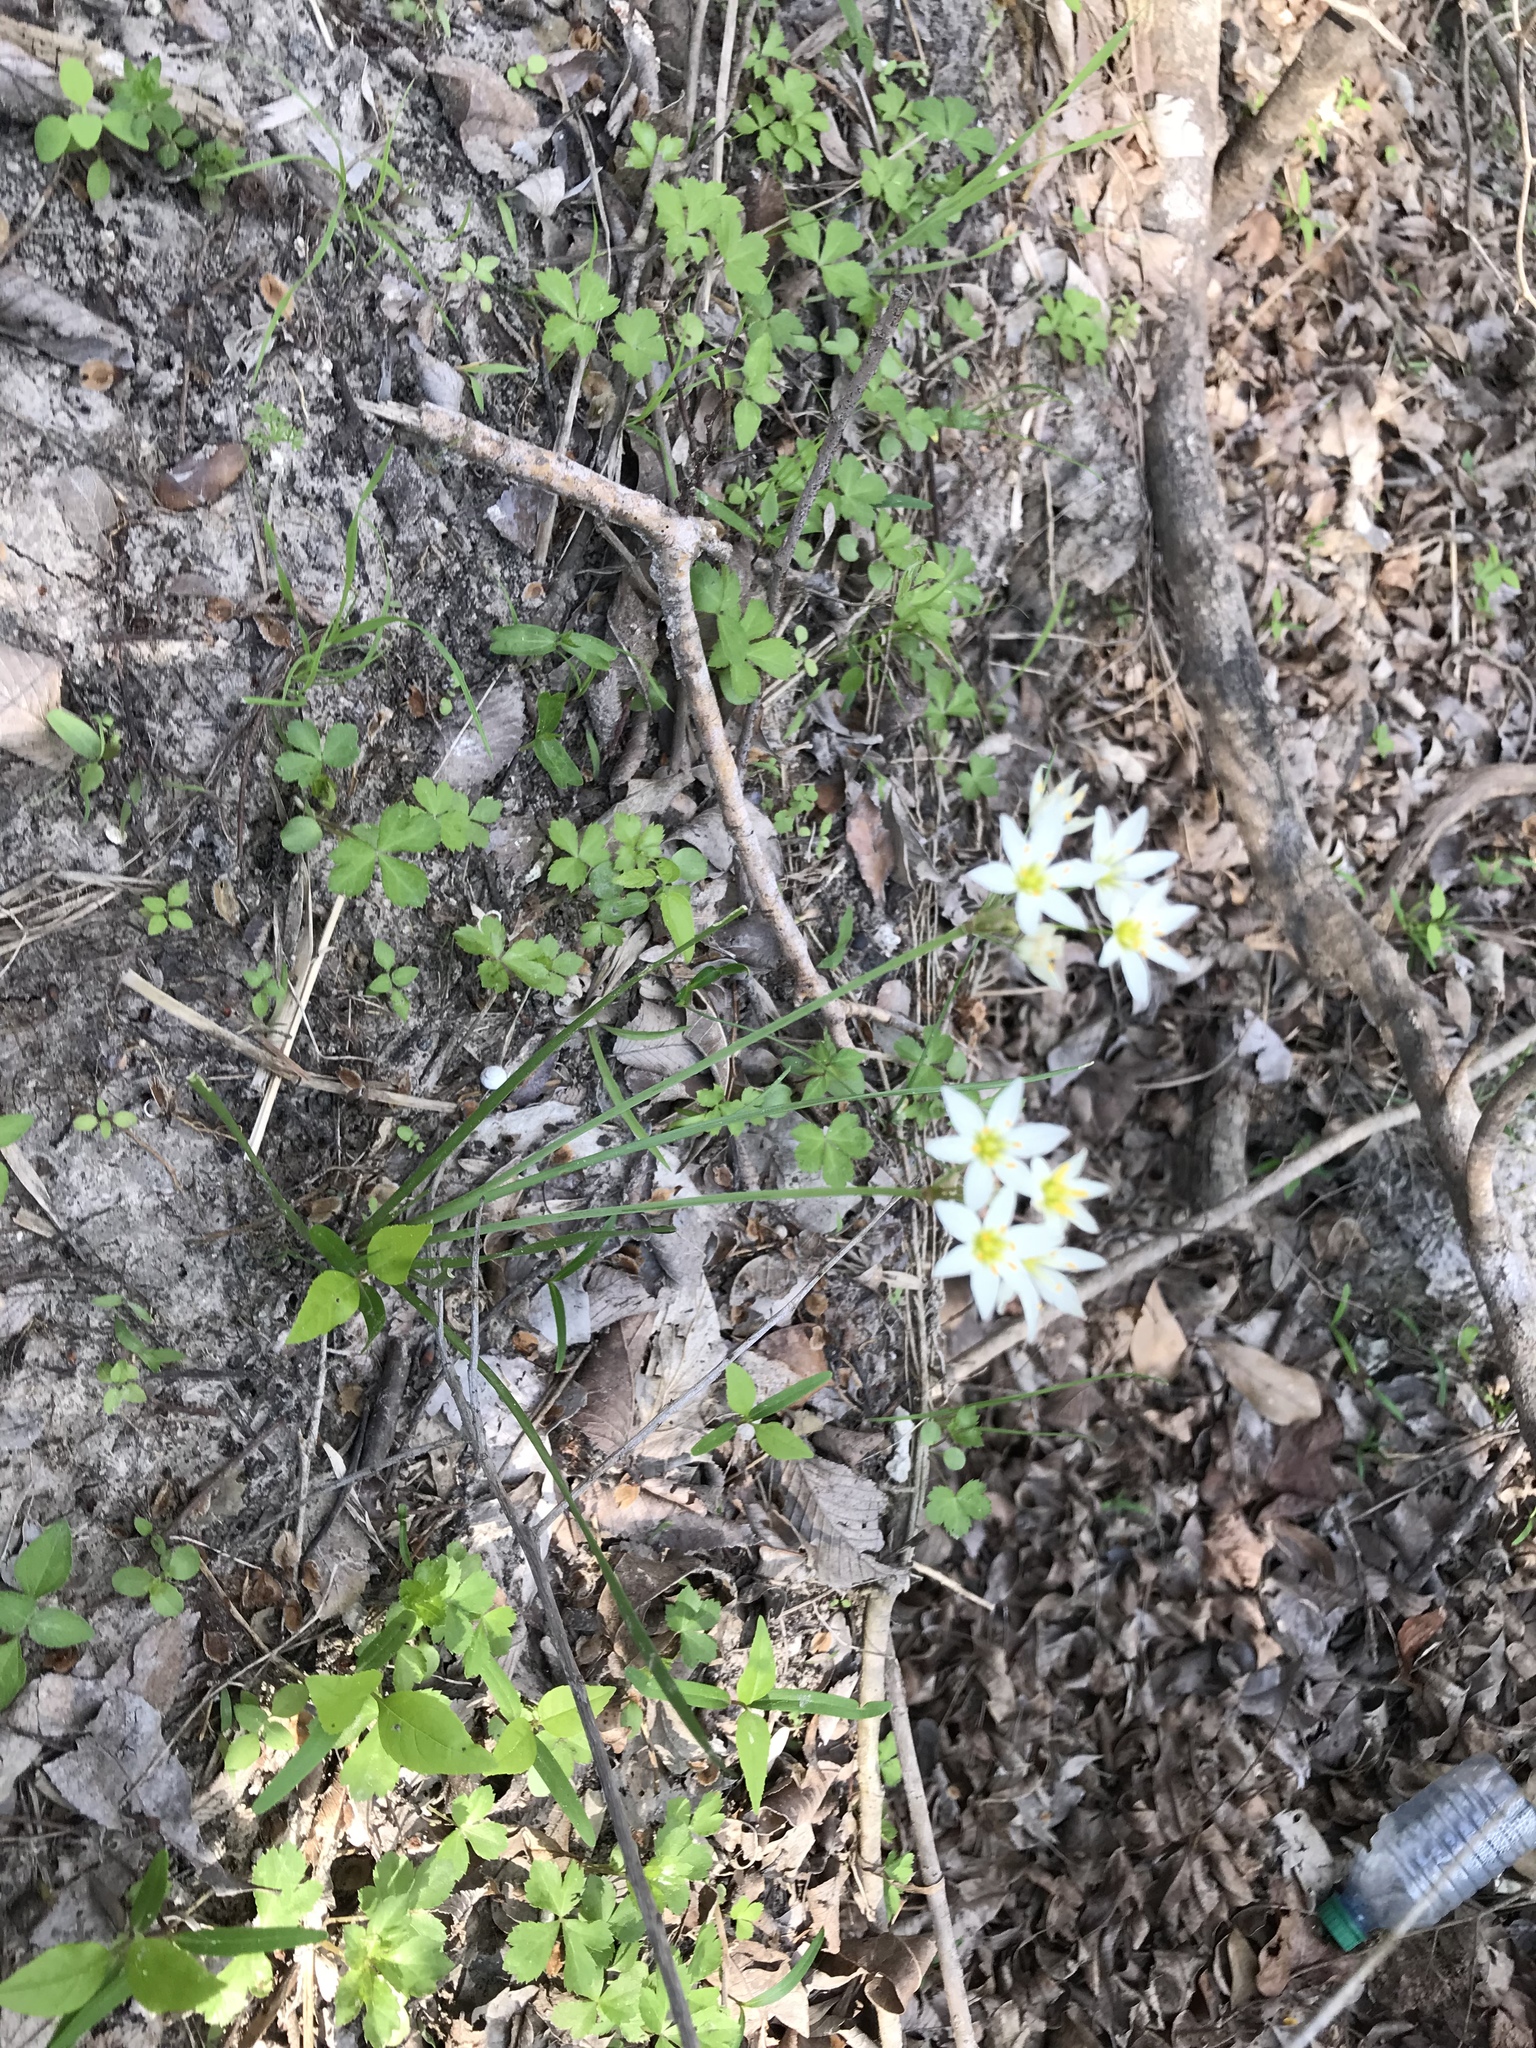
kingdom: Plantae
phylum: Tracheophyta
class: Liliopsida
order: Asparagales
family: Amaryllidaceae
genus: Nothoscordum
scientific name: Nothoscordum bivalve
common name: Crow-poison
